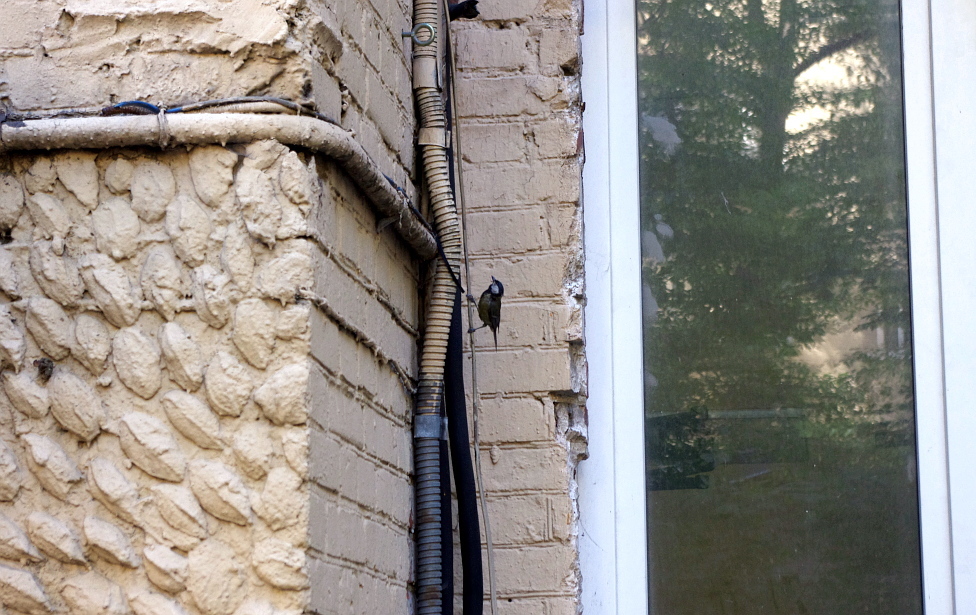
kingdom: Animalia
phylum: Chordata
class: Aves
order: Passeriformes
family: Paridae
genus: Parus
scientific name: Parus major
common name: Great tit
